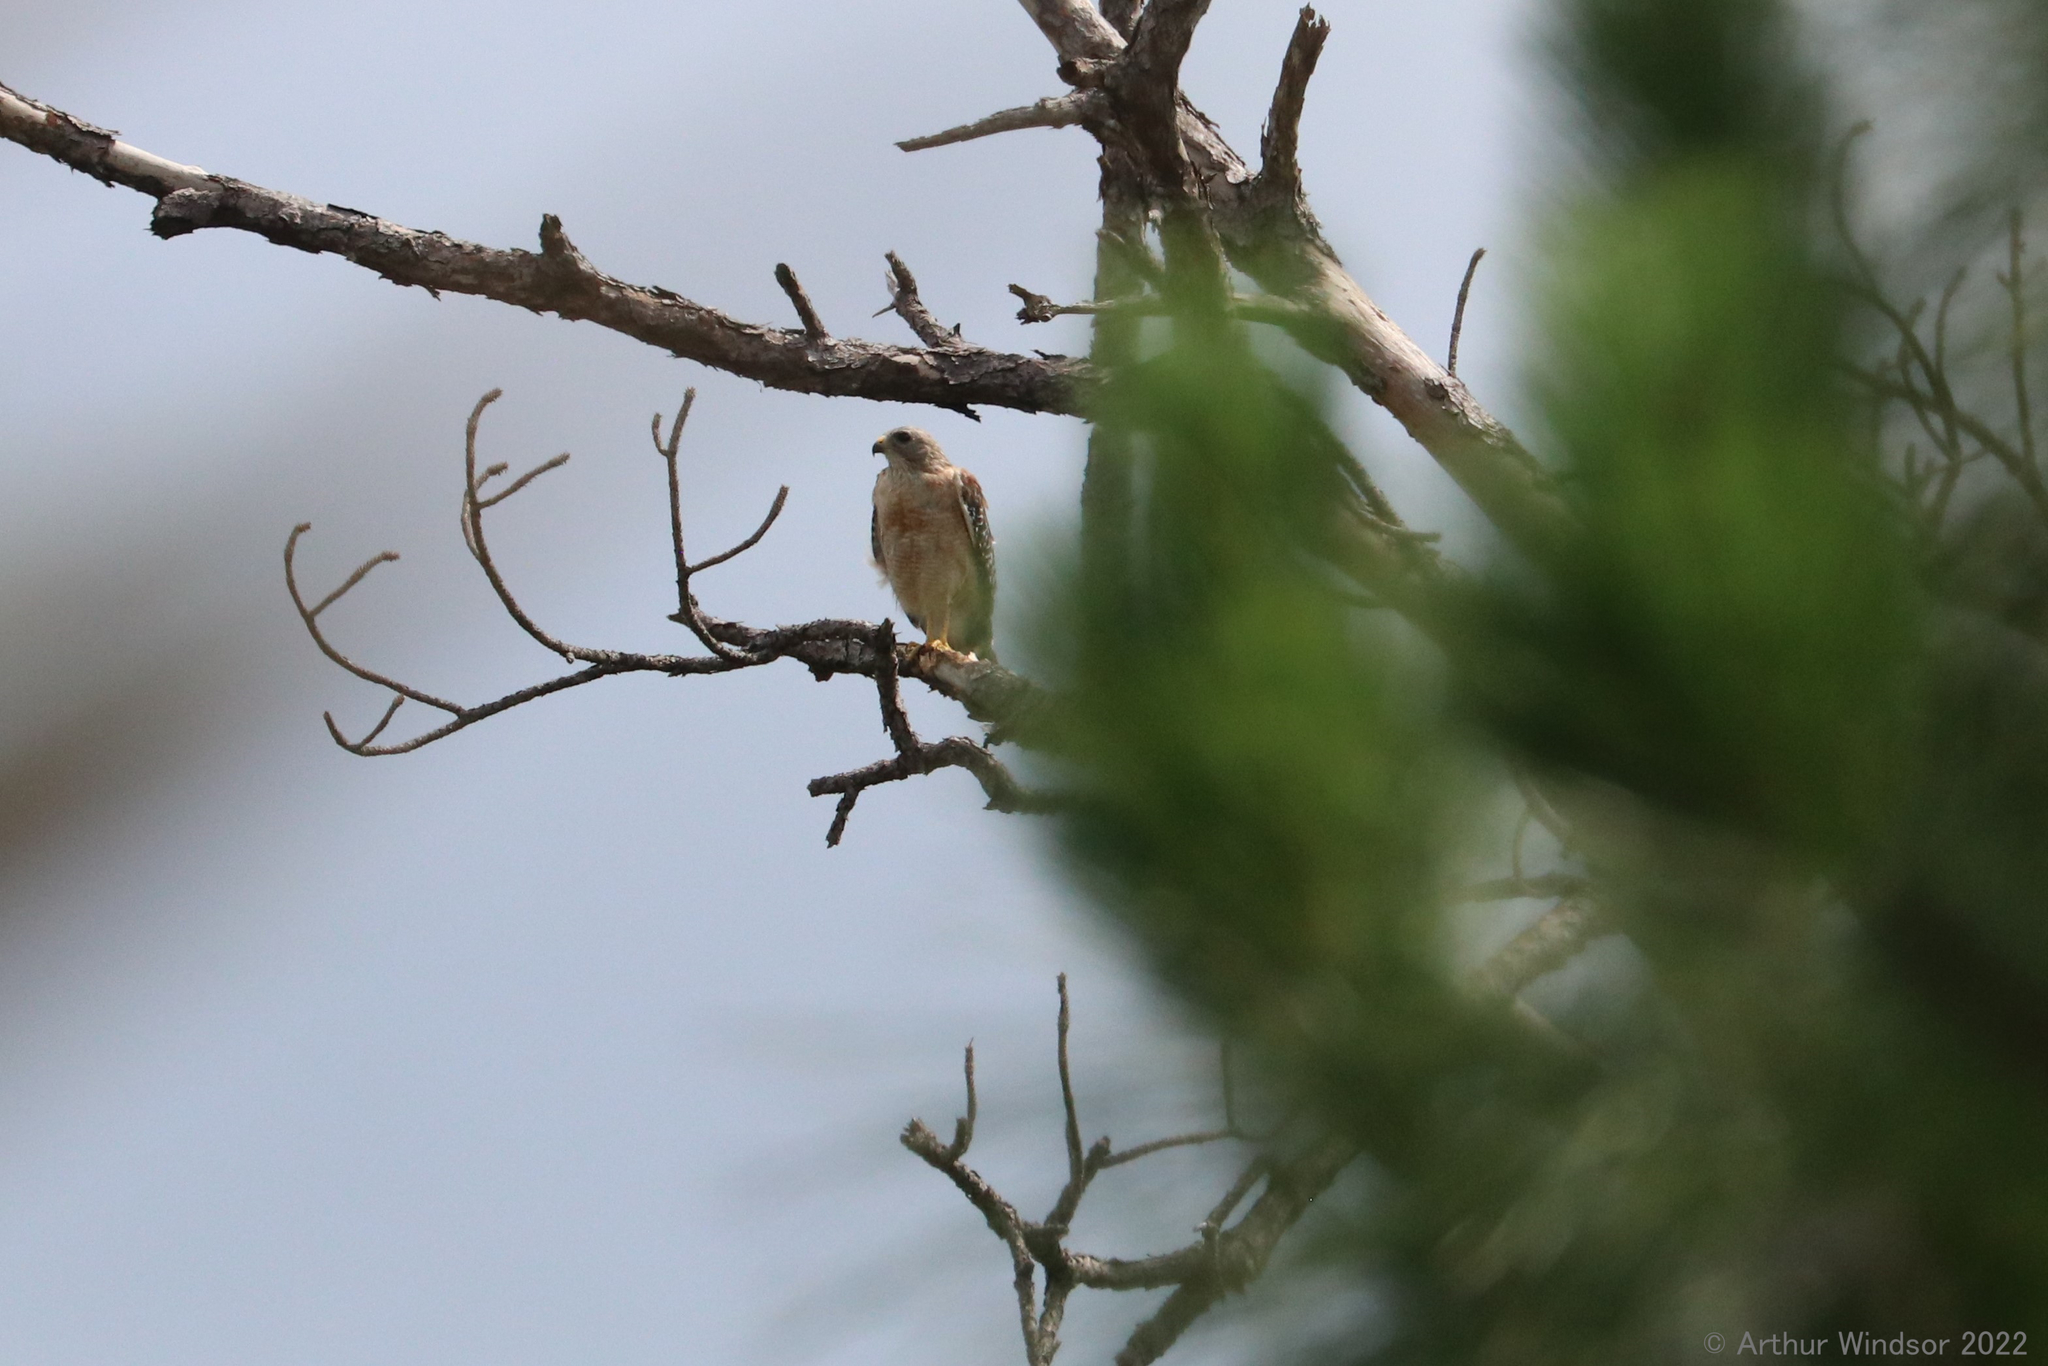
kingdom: Animalia
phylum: Chordata
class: Aves
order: Accipitriformes
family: Accipitridae
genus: Buteo
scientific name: Buteo lineatus
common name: Red-shouldered hawk
